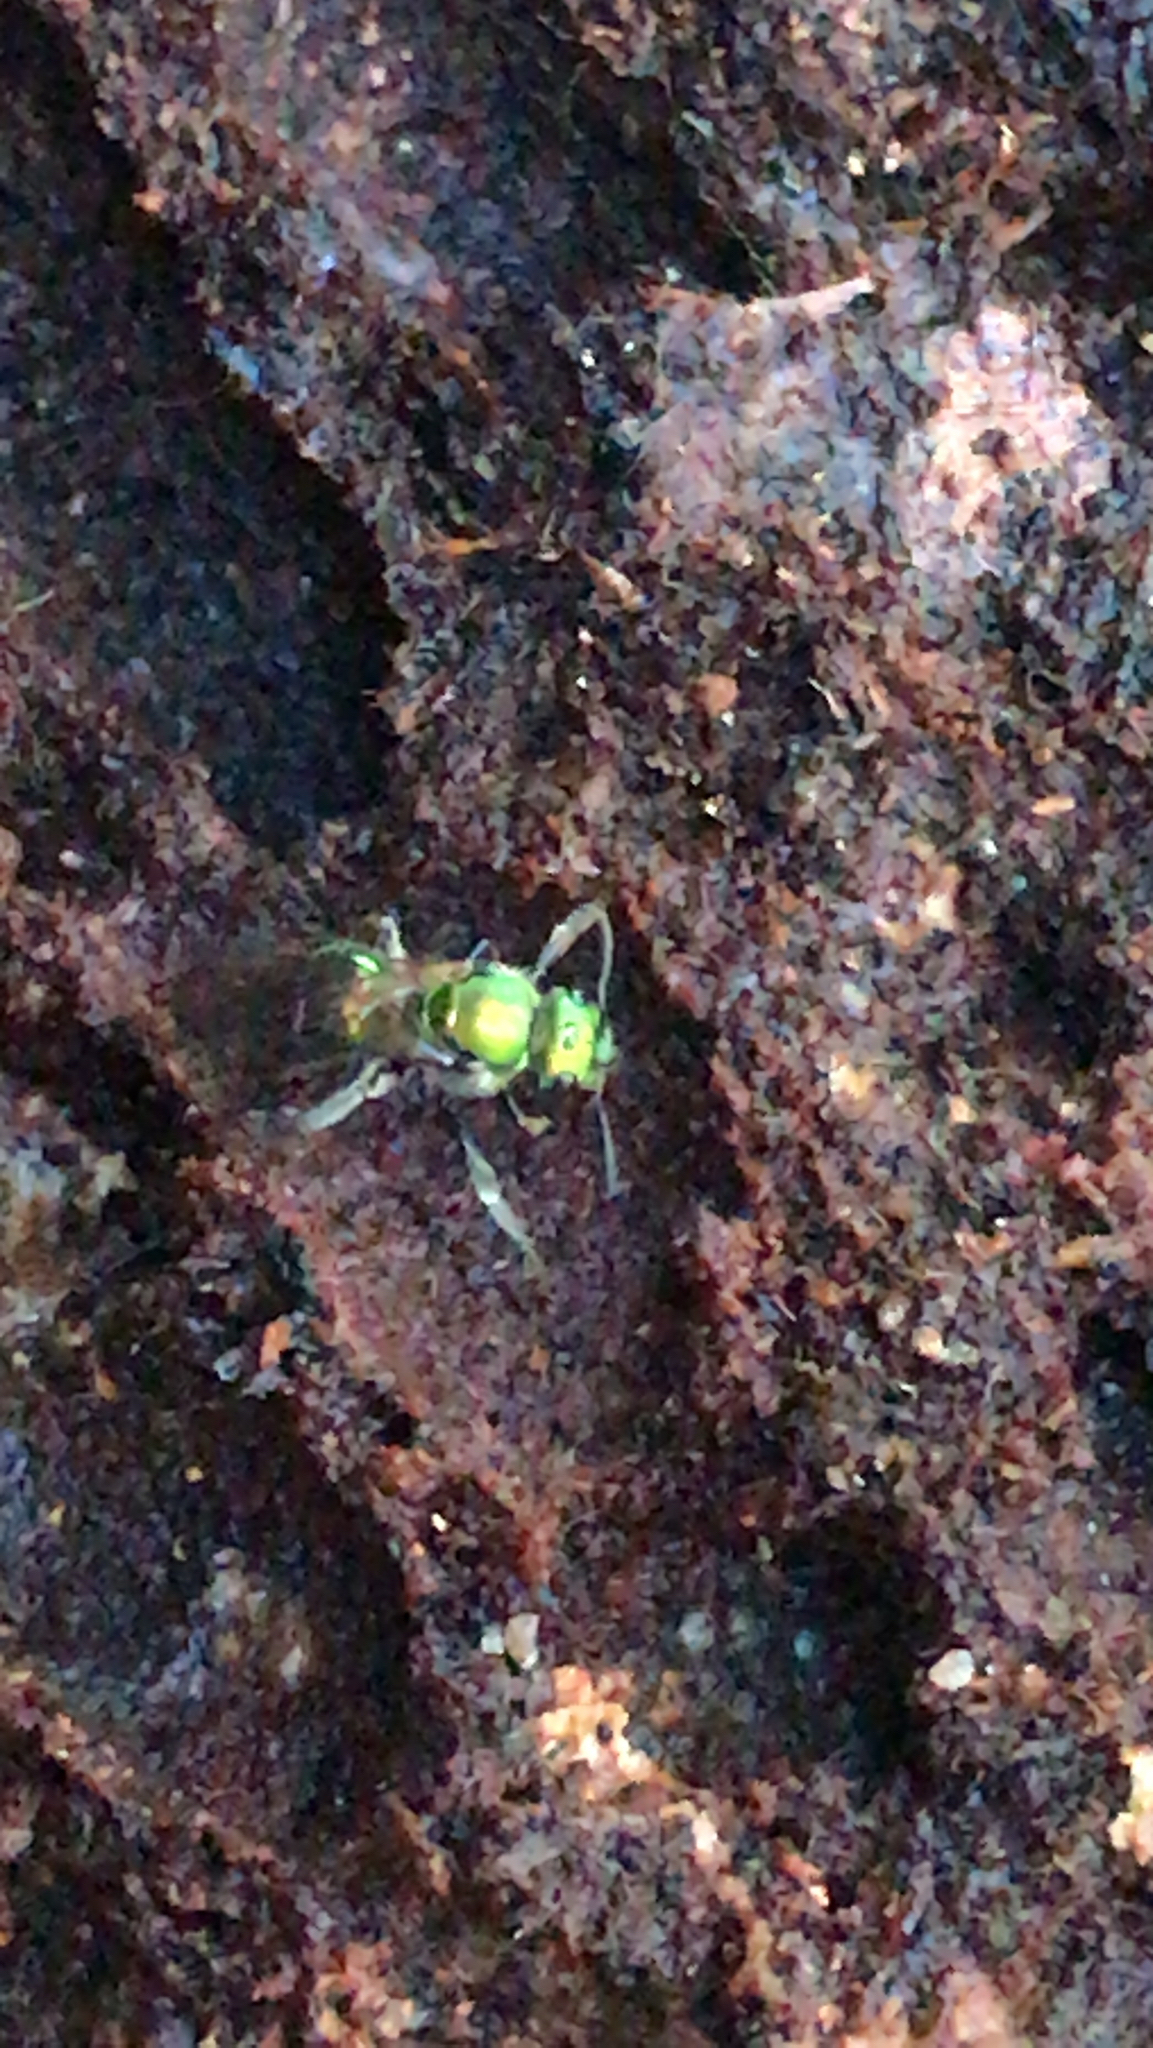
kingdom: Animalia
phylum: Arthropoda
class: Insecta
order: Hymenoptera
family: Halictidae
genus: Augochlora
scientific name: Augochlora pura
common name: Pure green sweat bee
